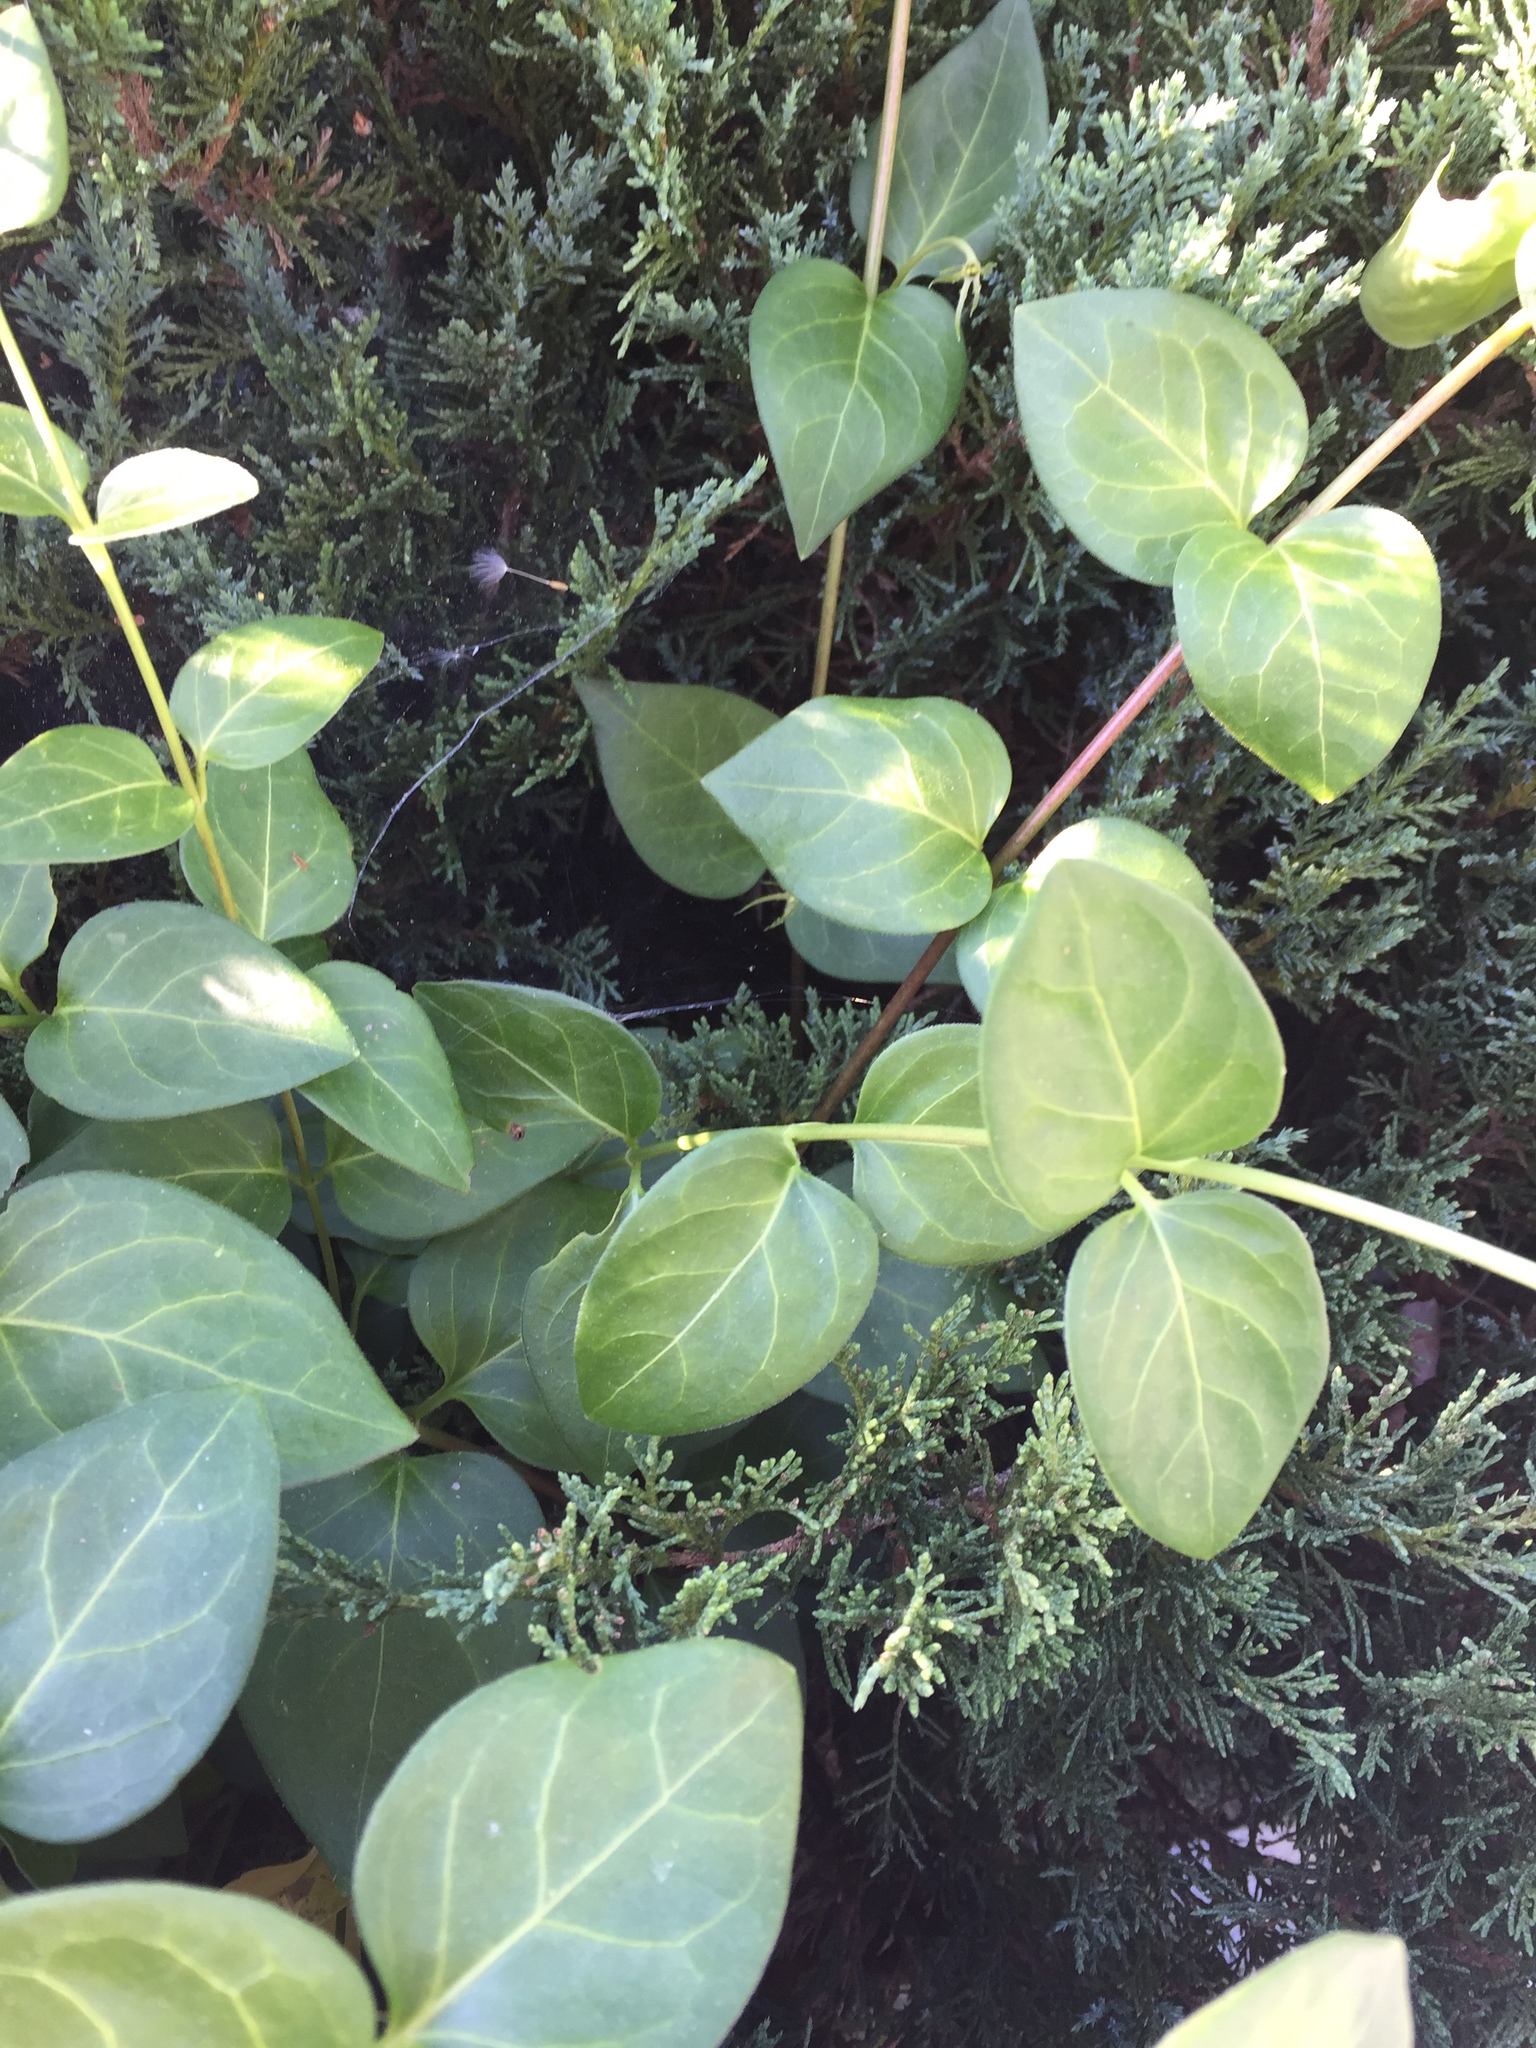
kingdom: Plantae
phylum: Tracheophyta
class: Magnoliopsida
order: Gentianales
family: Apocynaceae
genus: Vinca
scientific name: Vinca major
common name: Greater periwinkle
